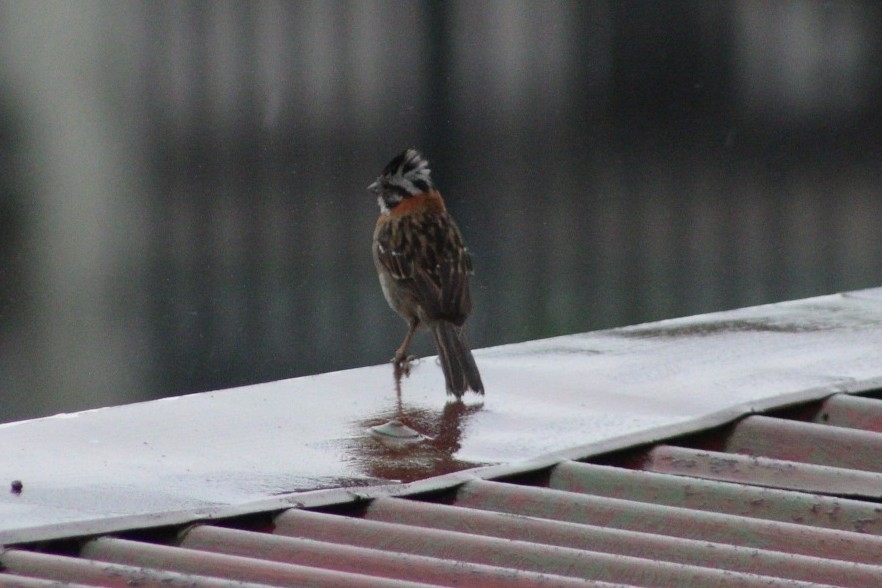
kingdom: Animalia
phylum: Chordata
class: Aves
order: Passeriformes
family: Passerellidae
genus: Zonotrichia
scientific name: Zonotrichia capensis
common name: Rufous-collared sparrow
